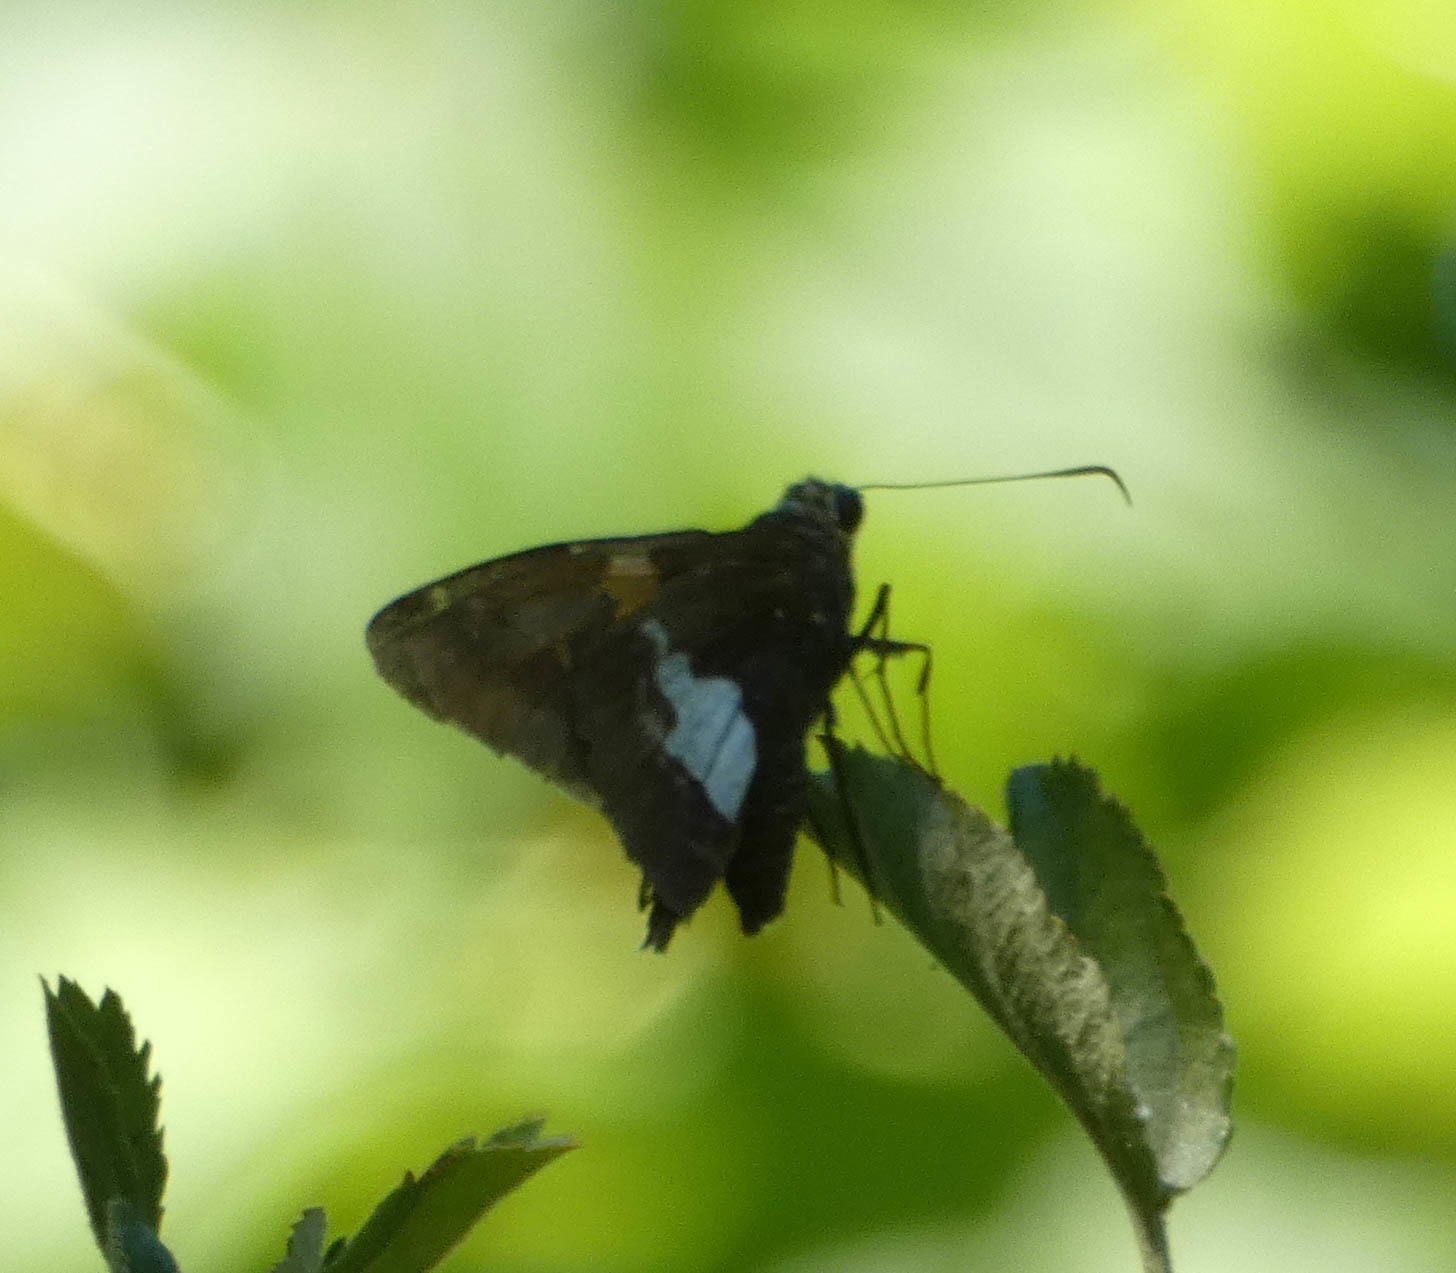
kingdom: Animalia
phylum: Arthropoda
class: Insecta
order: Lepidoptera
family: Hesperiidae
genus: Epargyreus
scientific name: Epargyreus clarus
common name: Silver-spotted skipper
